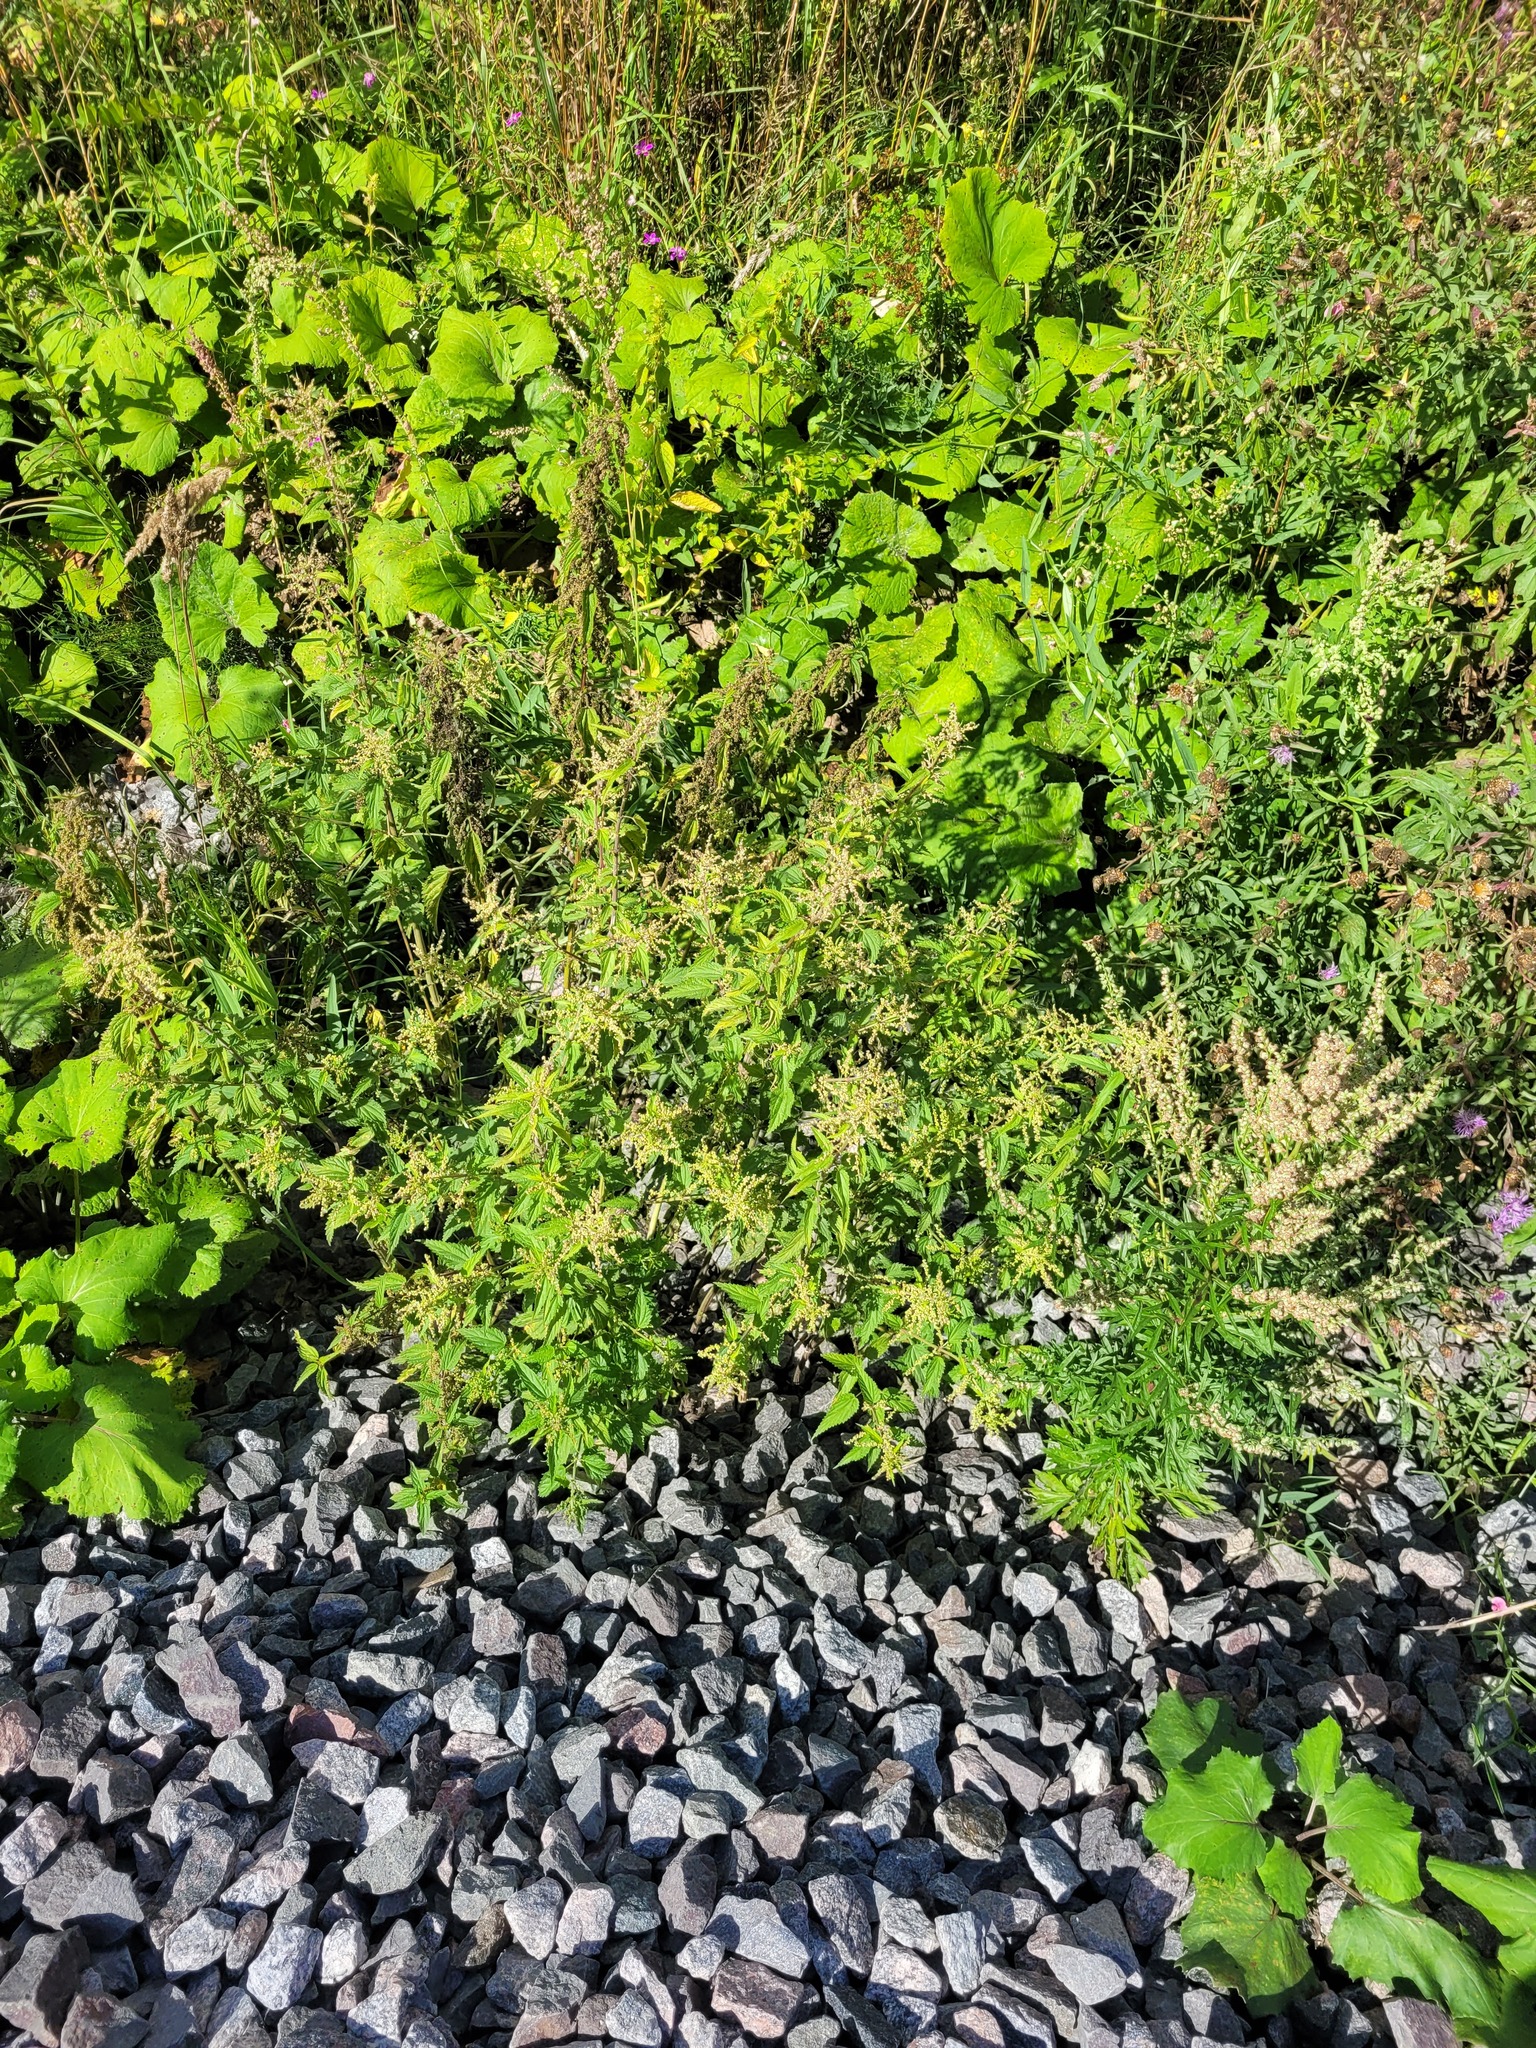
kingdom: Plantae
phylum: Tracheophyta
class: Magnoliopsida
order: Rosales
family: Urticaceae
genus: Urtica
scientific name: Urtica dioica
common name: Common nettle
